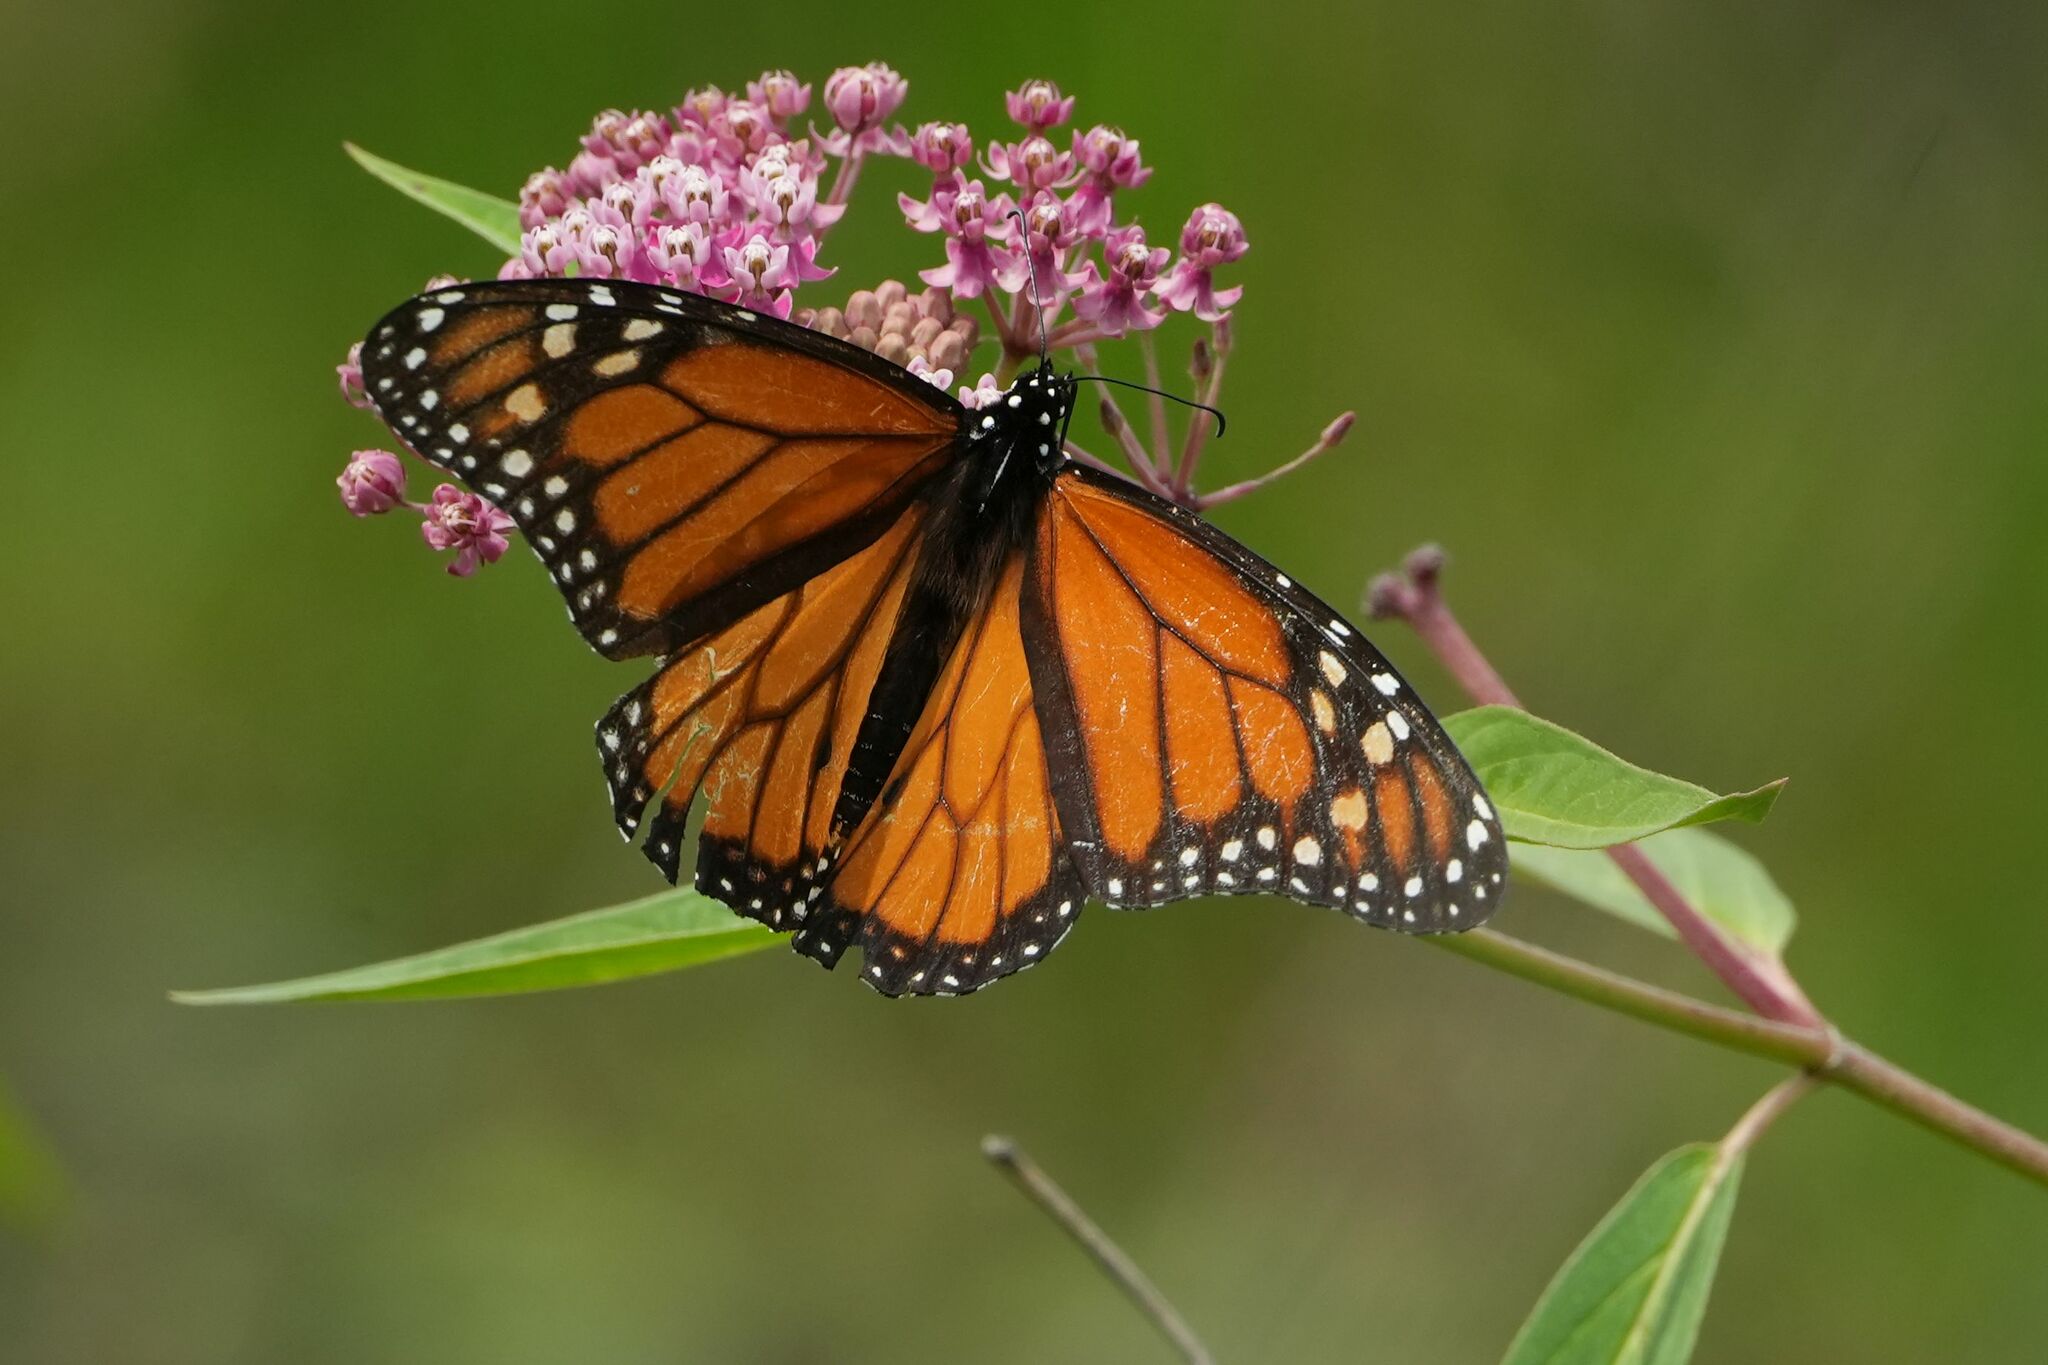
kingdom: Animalia
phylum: Arthropoda
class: Insecta
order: Lepidoptera
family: Nymphalidae
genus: Danaus
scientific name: Danaus plexippus
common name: Monarch
